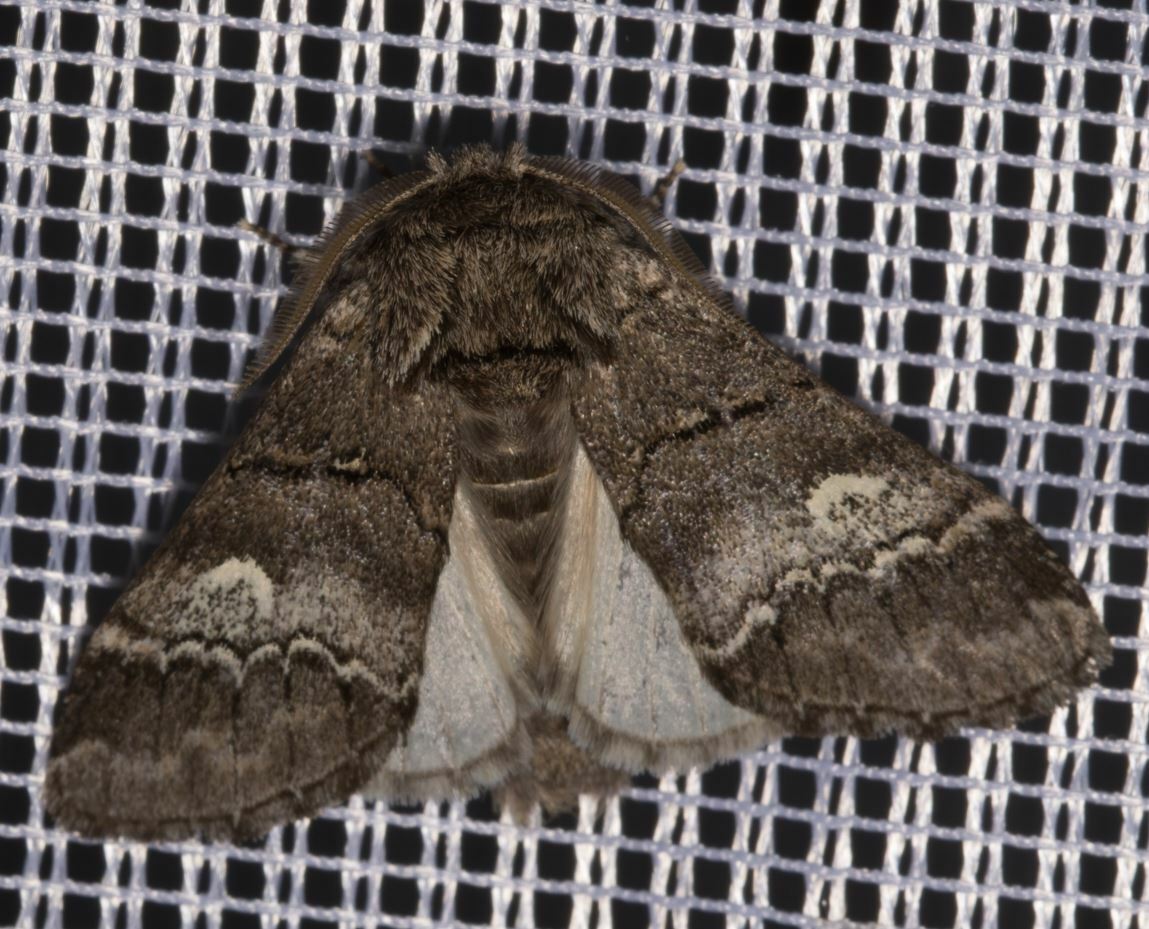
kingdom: Animalia
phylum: Arthropoda
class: Insecta
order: Lepidoptera
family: Notodontidae
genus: Drymonia
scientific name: Drymonia querna
